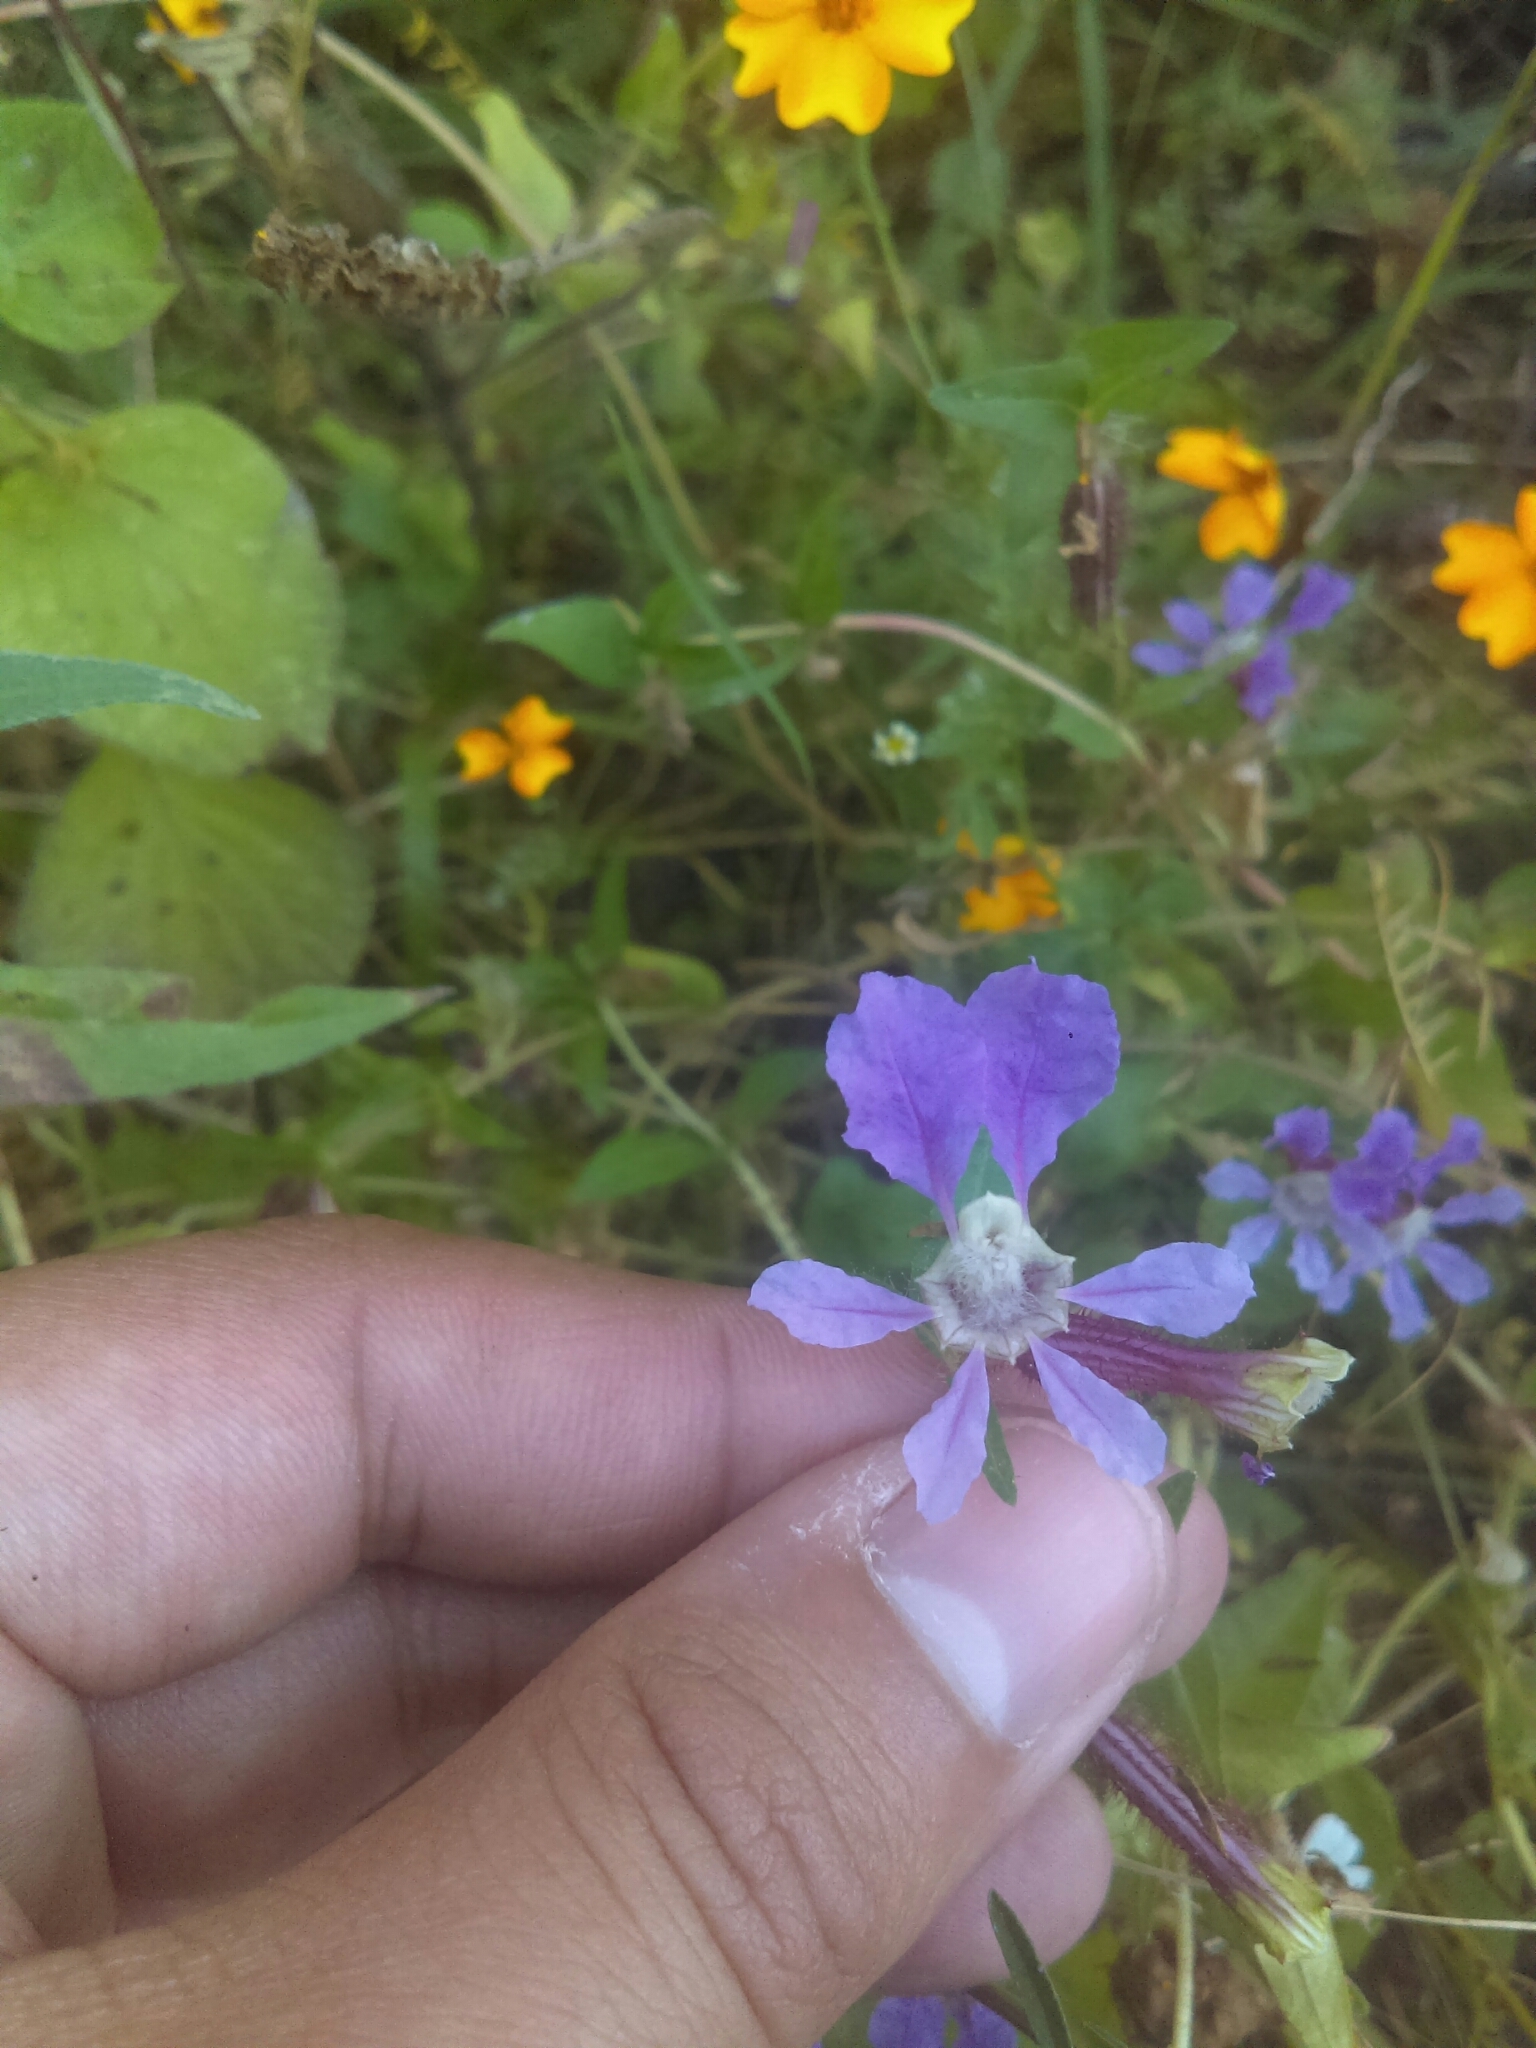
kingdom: Plantae
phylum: Tracheophyta
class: Magnoliopsida
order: Myrtales
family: Lythraceae
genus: Cuphea
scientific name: Cuphea procumbens
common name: Creeping waxweed
